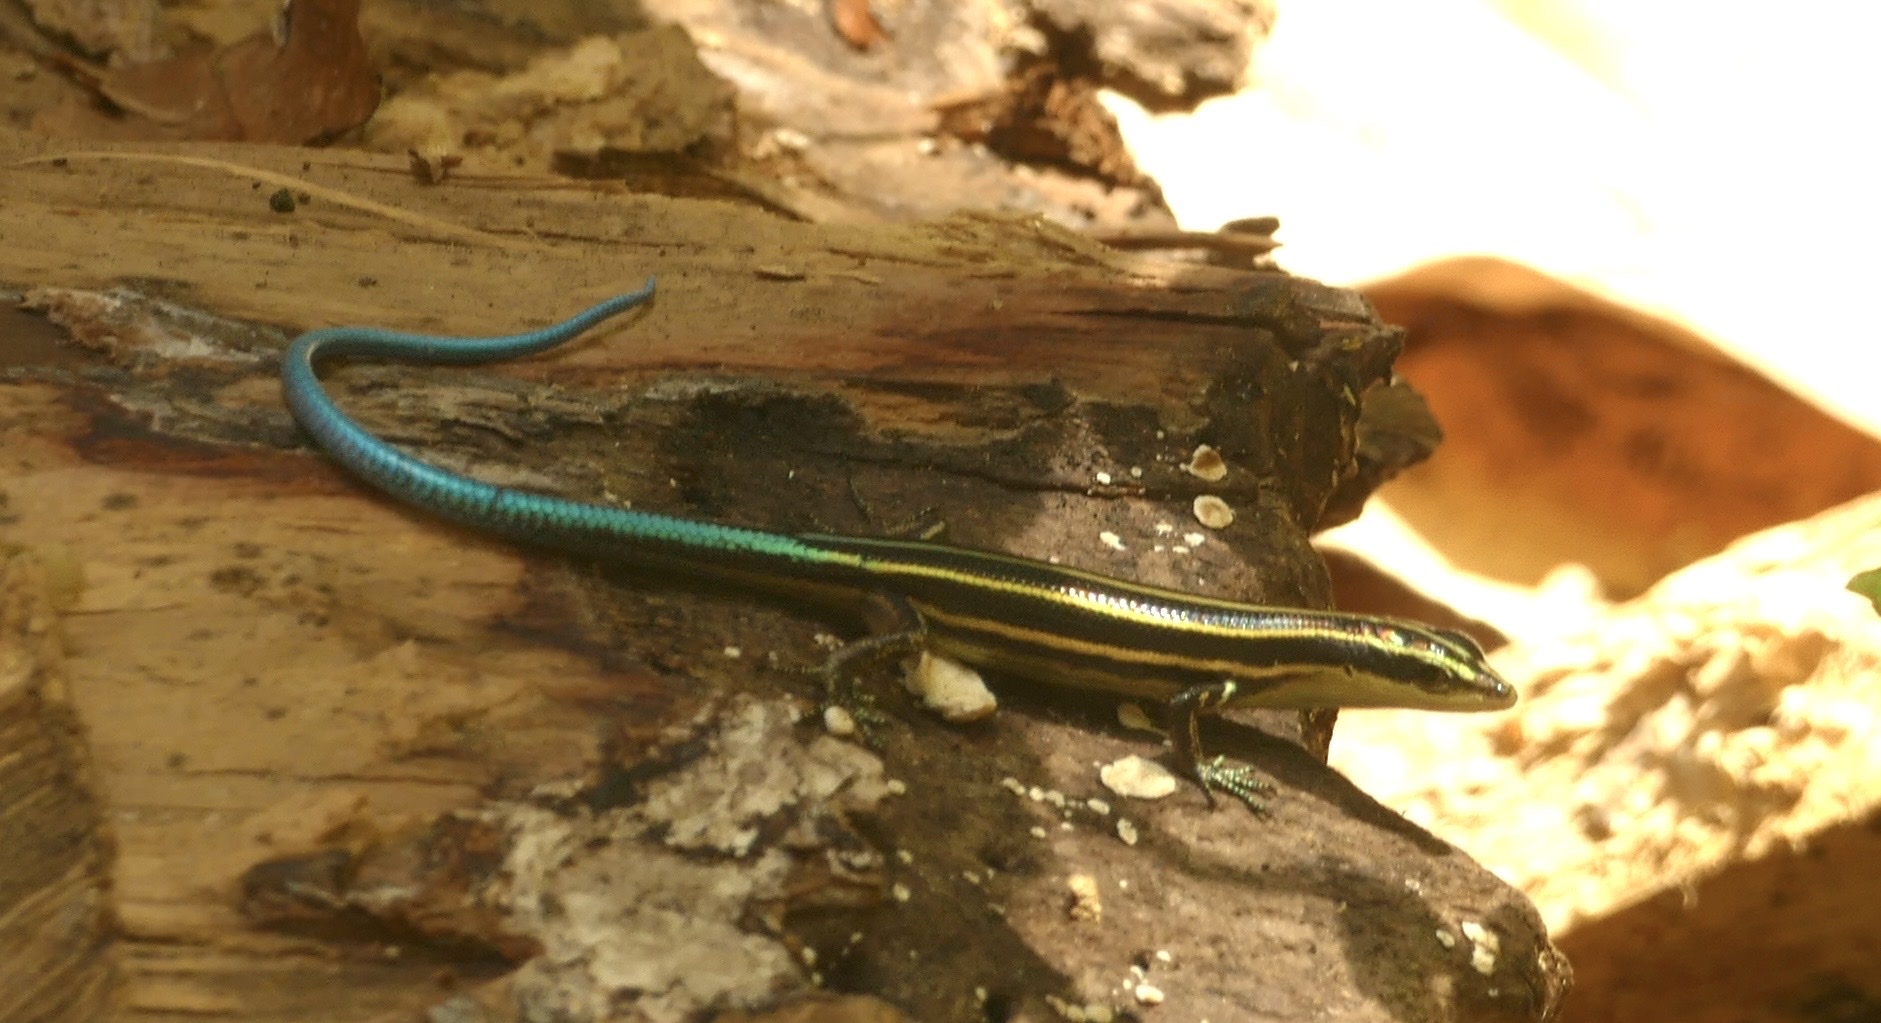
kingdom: Animalia
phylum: Chordata
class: Squamata
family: Scincidae
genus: Emoia
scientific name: Emoia caeruleocauda
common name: Pacific bluetail skink
